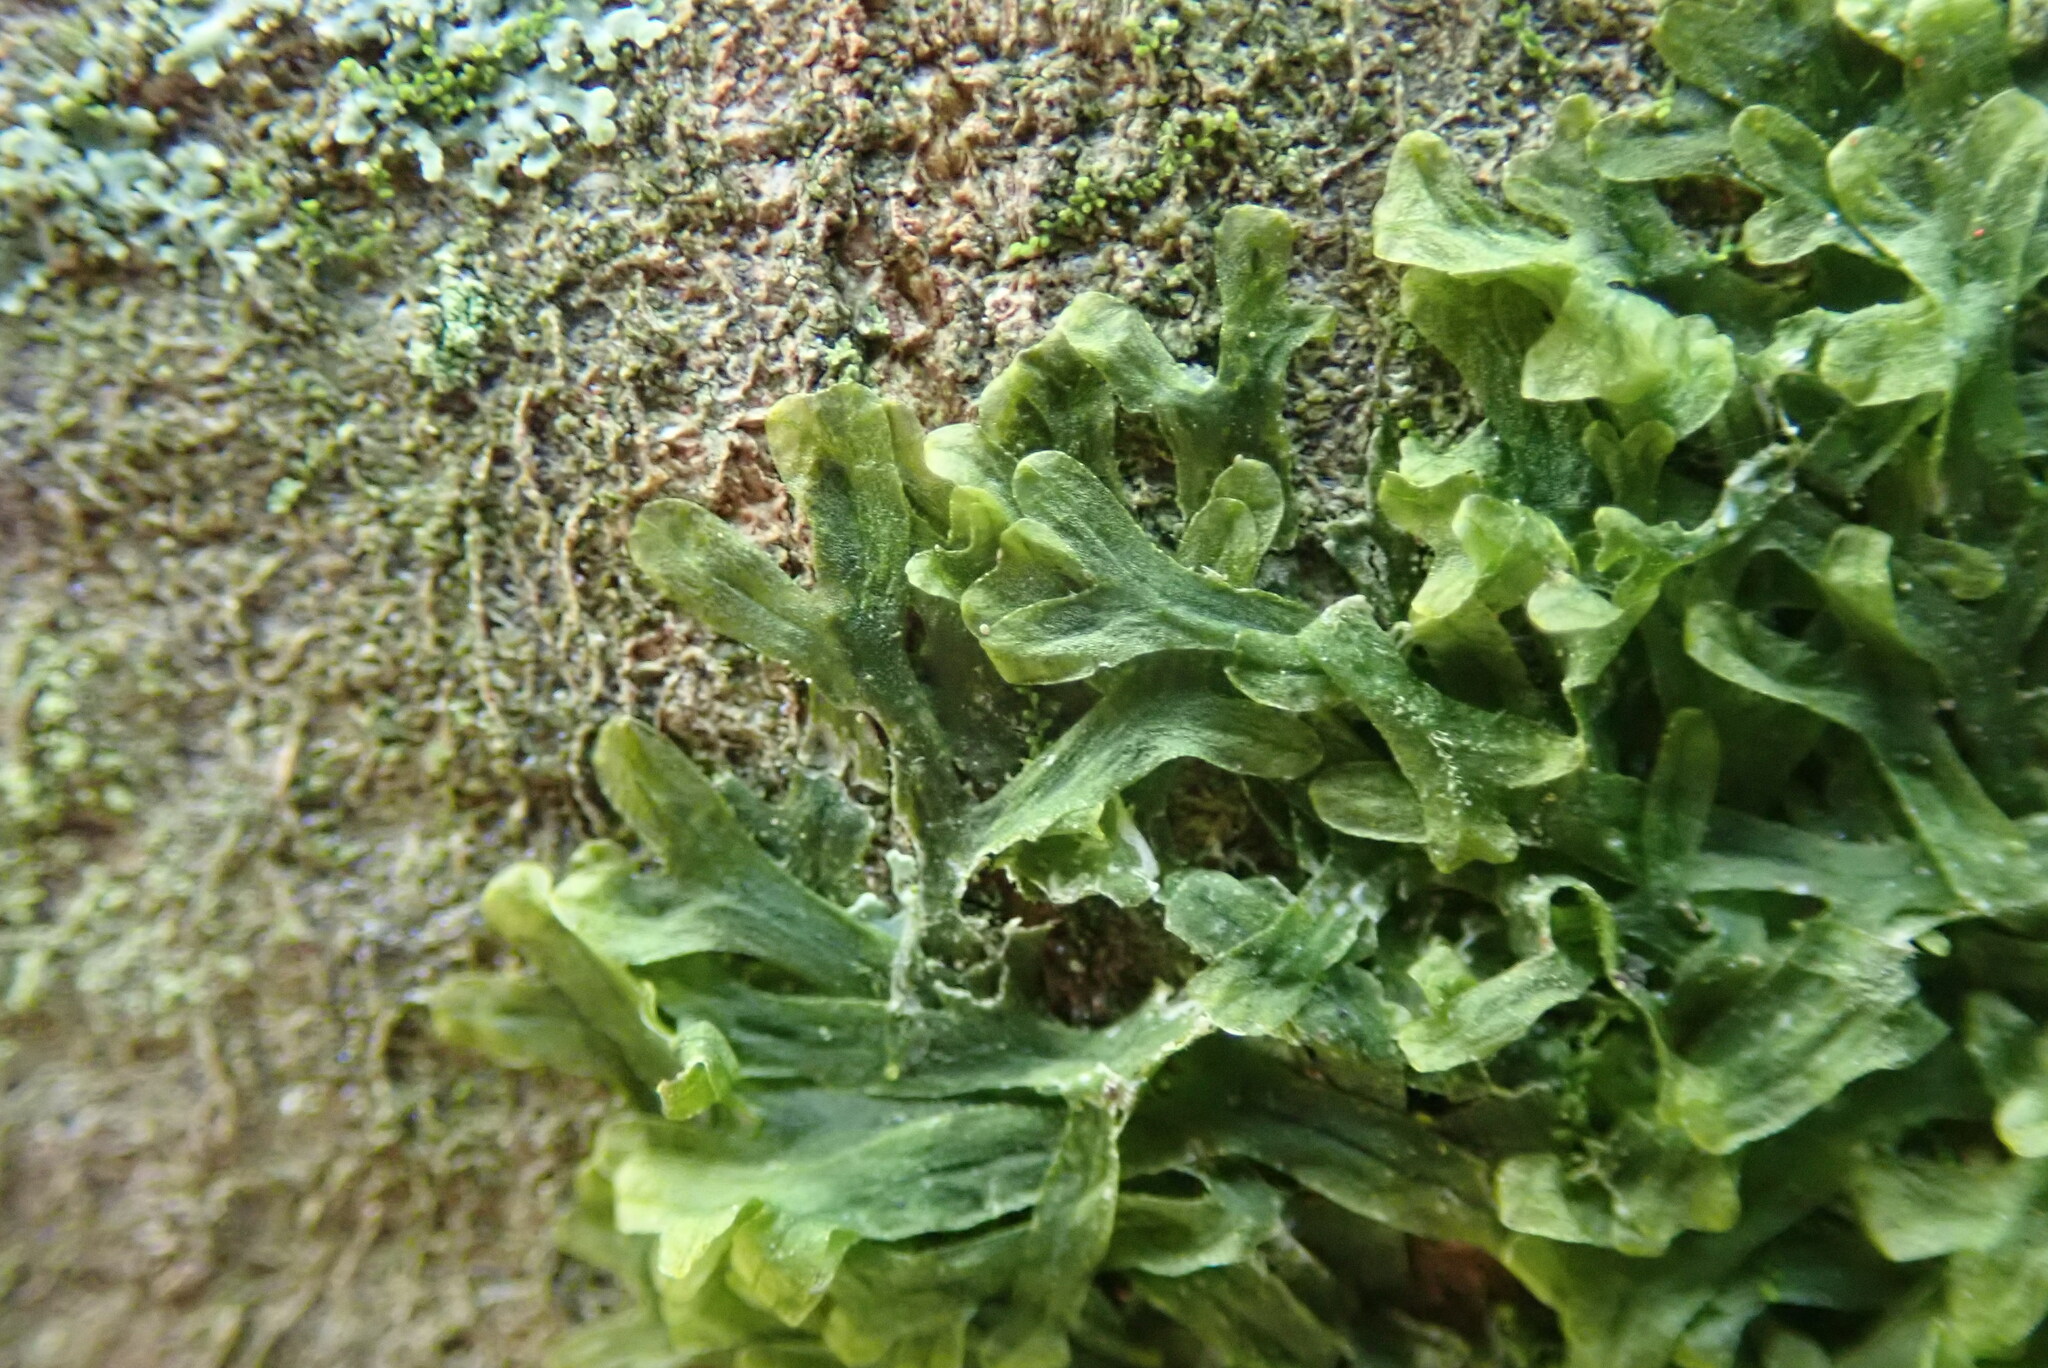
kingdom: Plantae
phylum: Marchantiophyta
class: Jungermanniopsida
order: Metzgeriales
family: Metzgeriaceae
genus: Metzgeria
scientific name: Metzgeria furcata
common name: Forked veilwort
